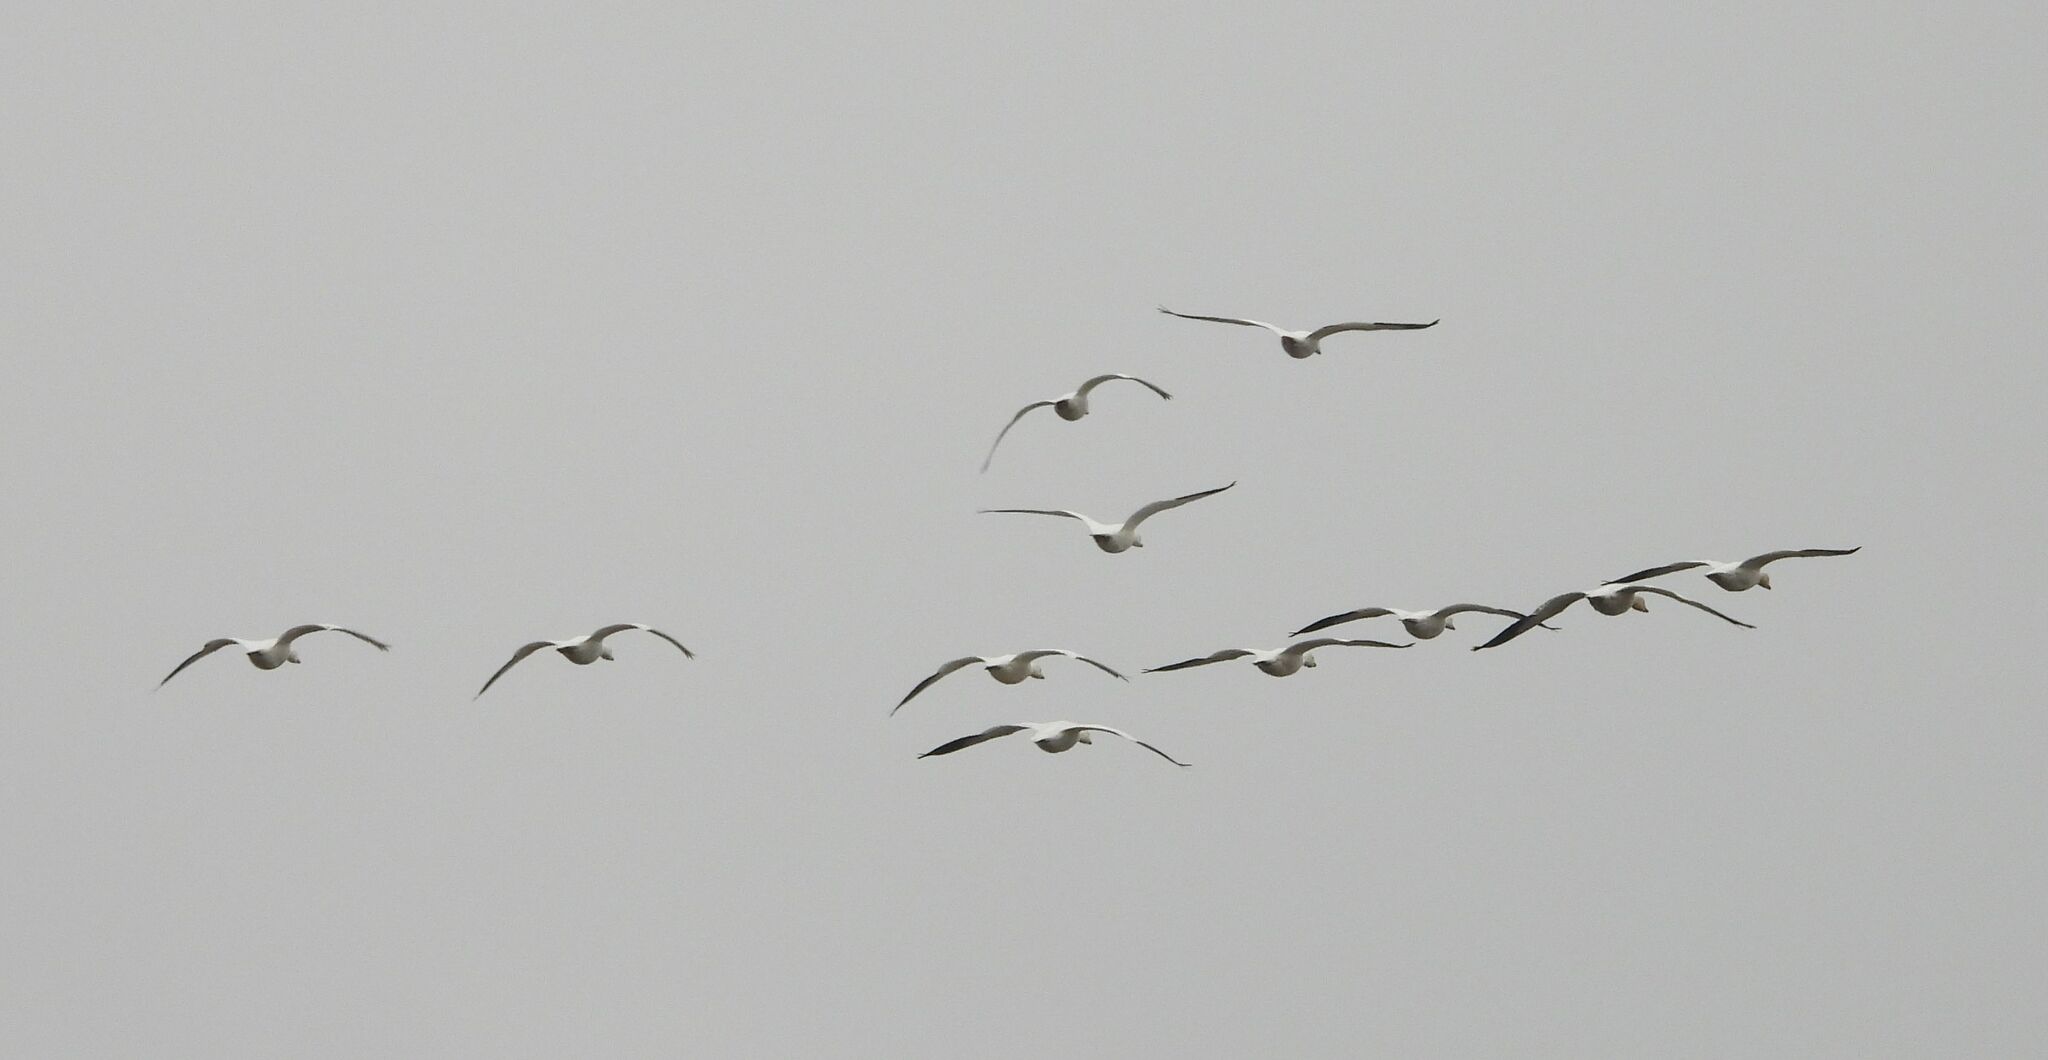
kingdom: Animalia
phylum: Chordata
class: Aves
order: Anseriformes
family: Anatidae
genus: Anser
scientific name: Anser caerulescens
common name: Snow goose
